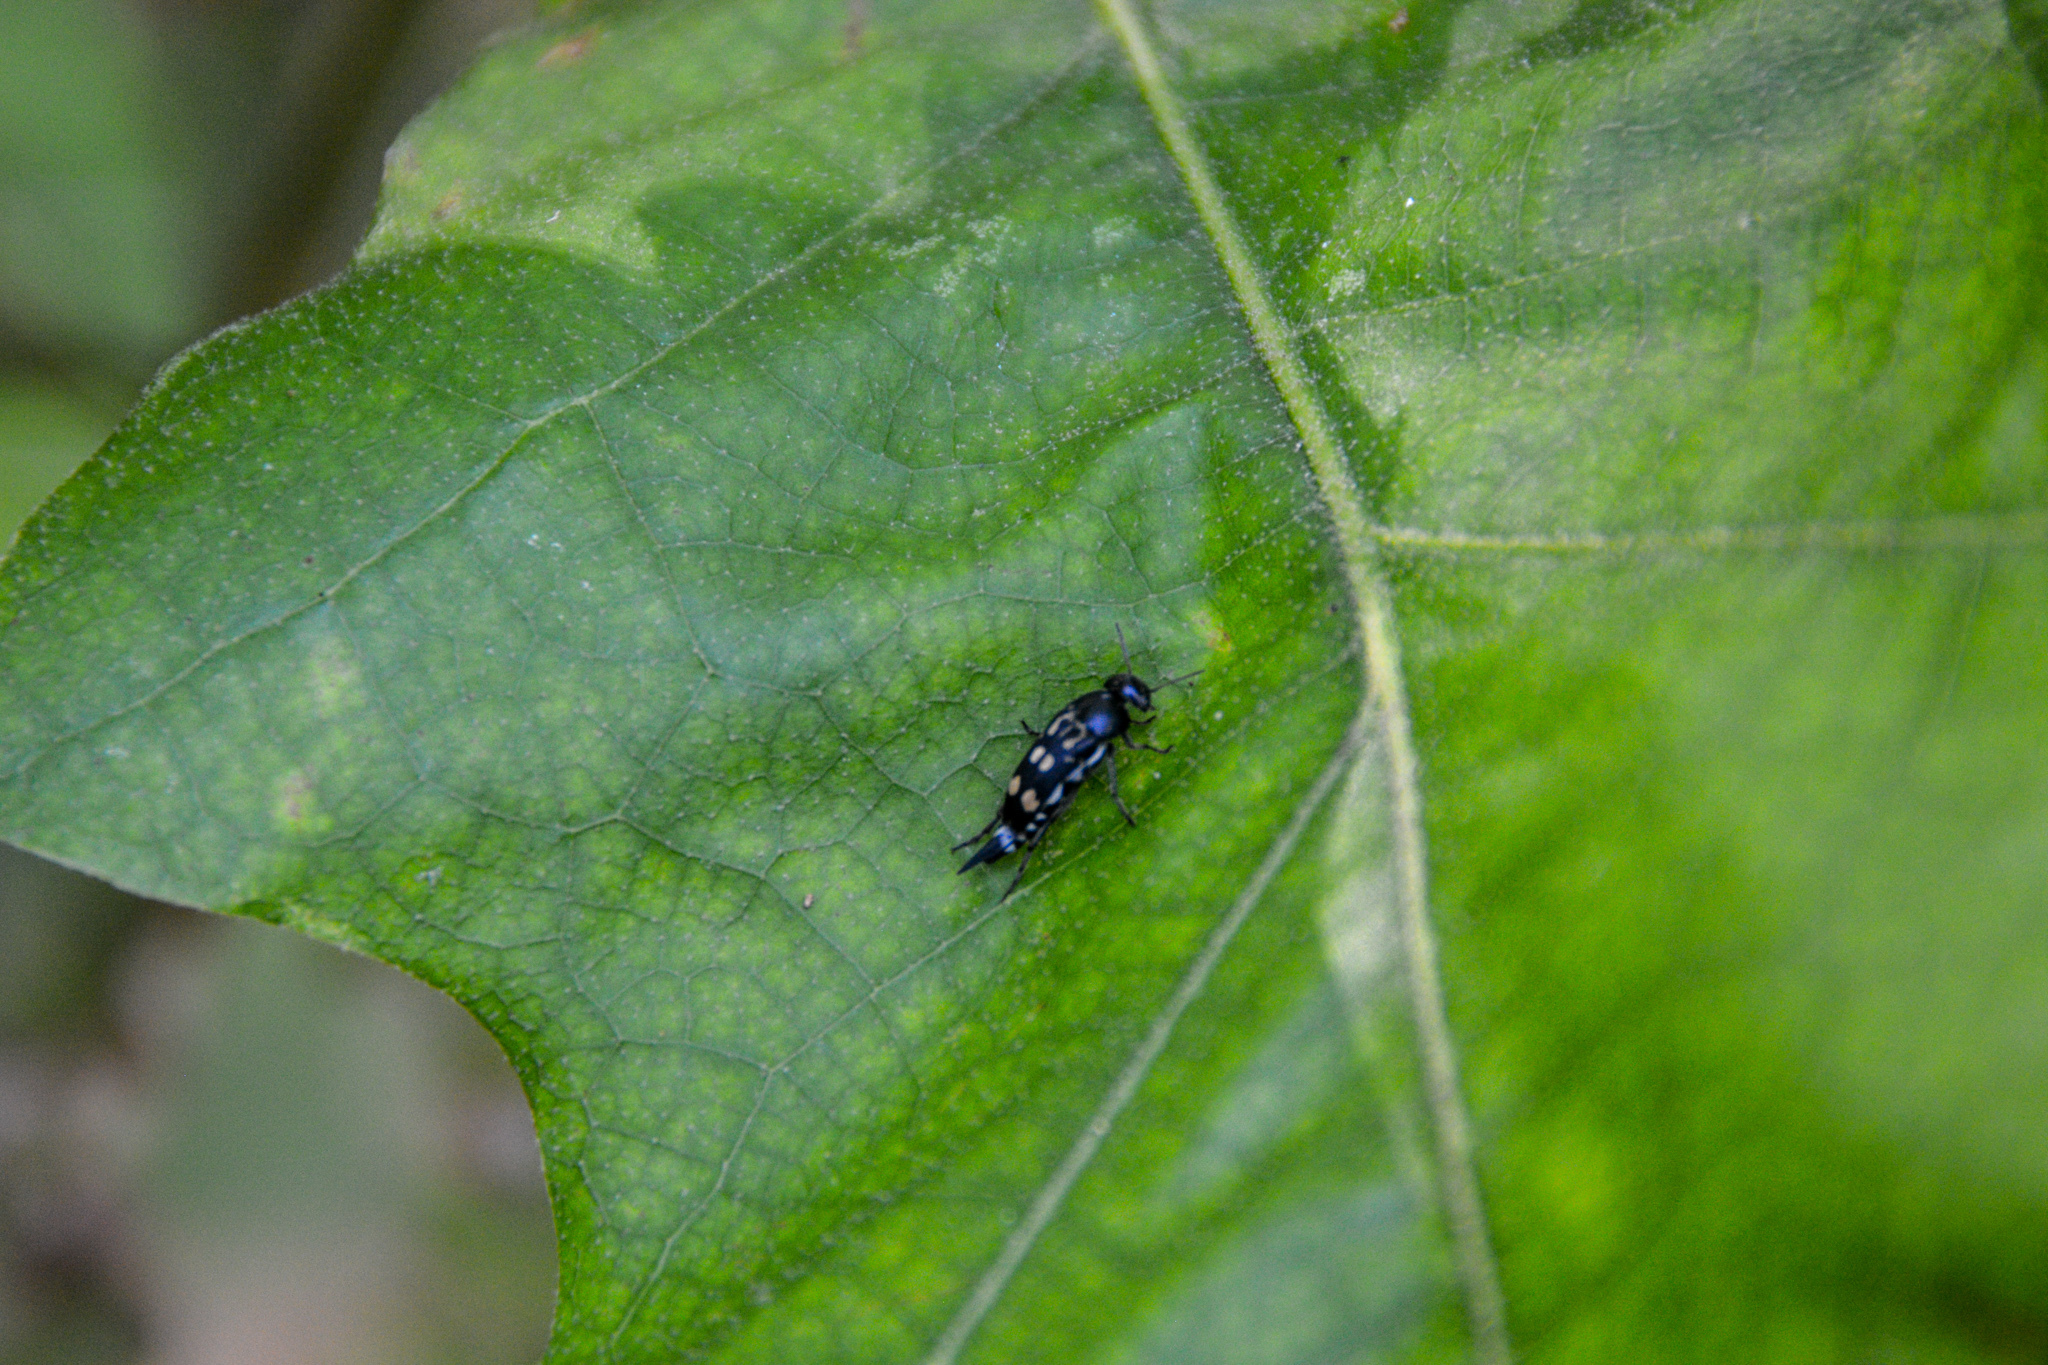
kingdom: Animalia
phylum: Arthropoda
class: Insecta
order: Coleoptera
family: Mordellidae
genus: Hoshihananomia
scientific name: Hoshihananomia octopunctata
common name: Eight-spotted tumbling flower beetle
